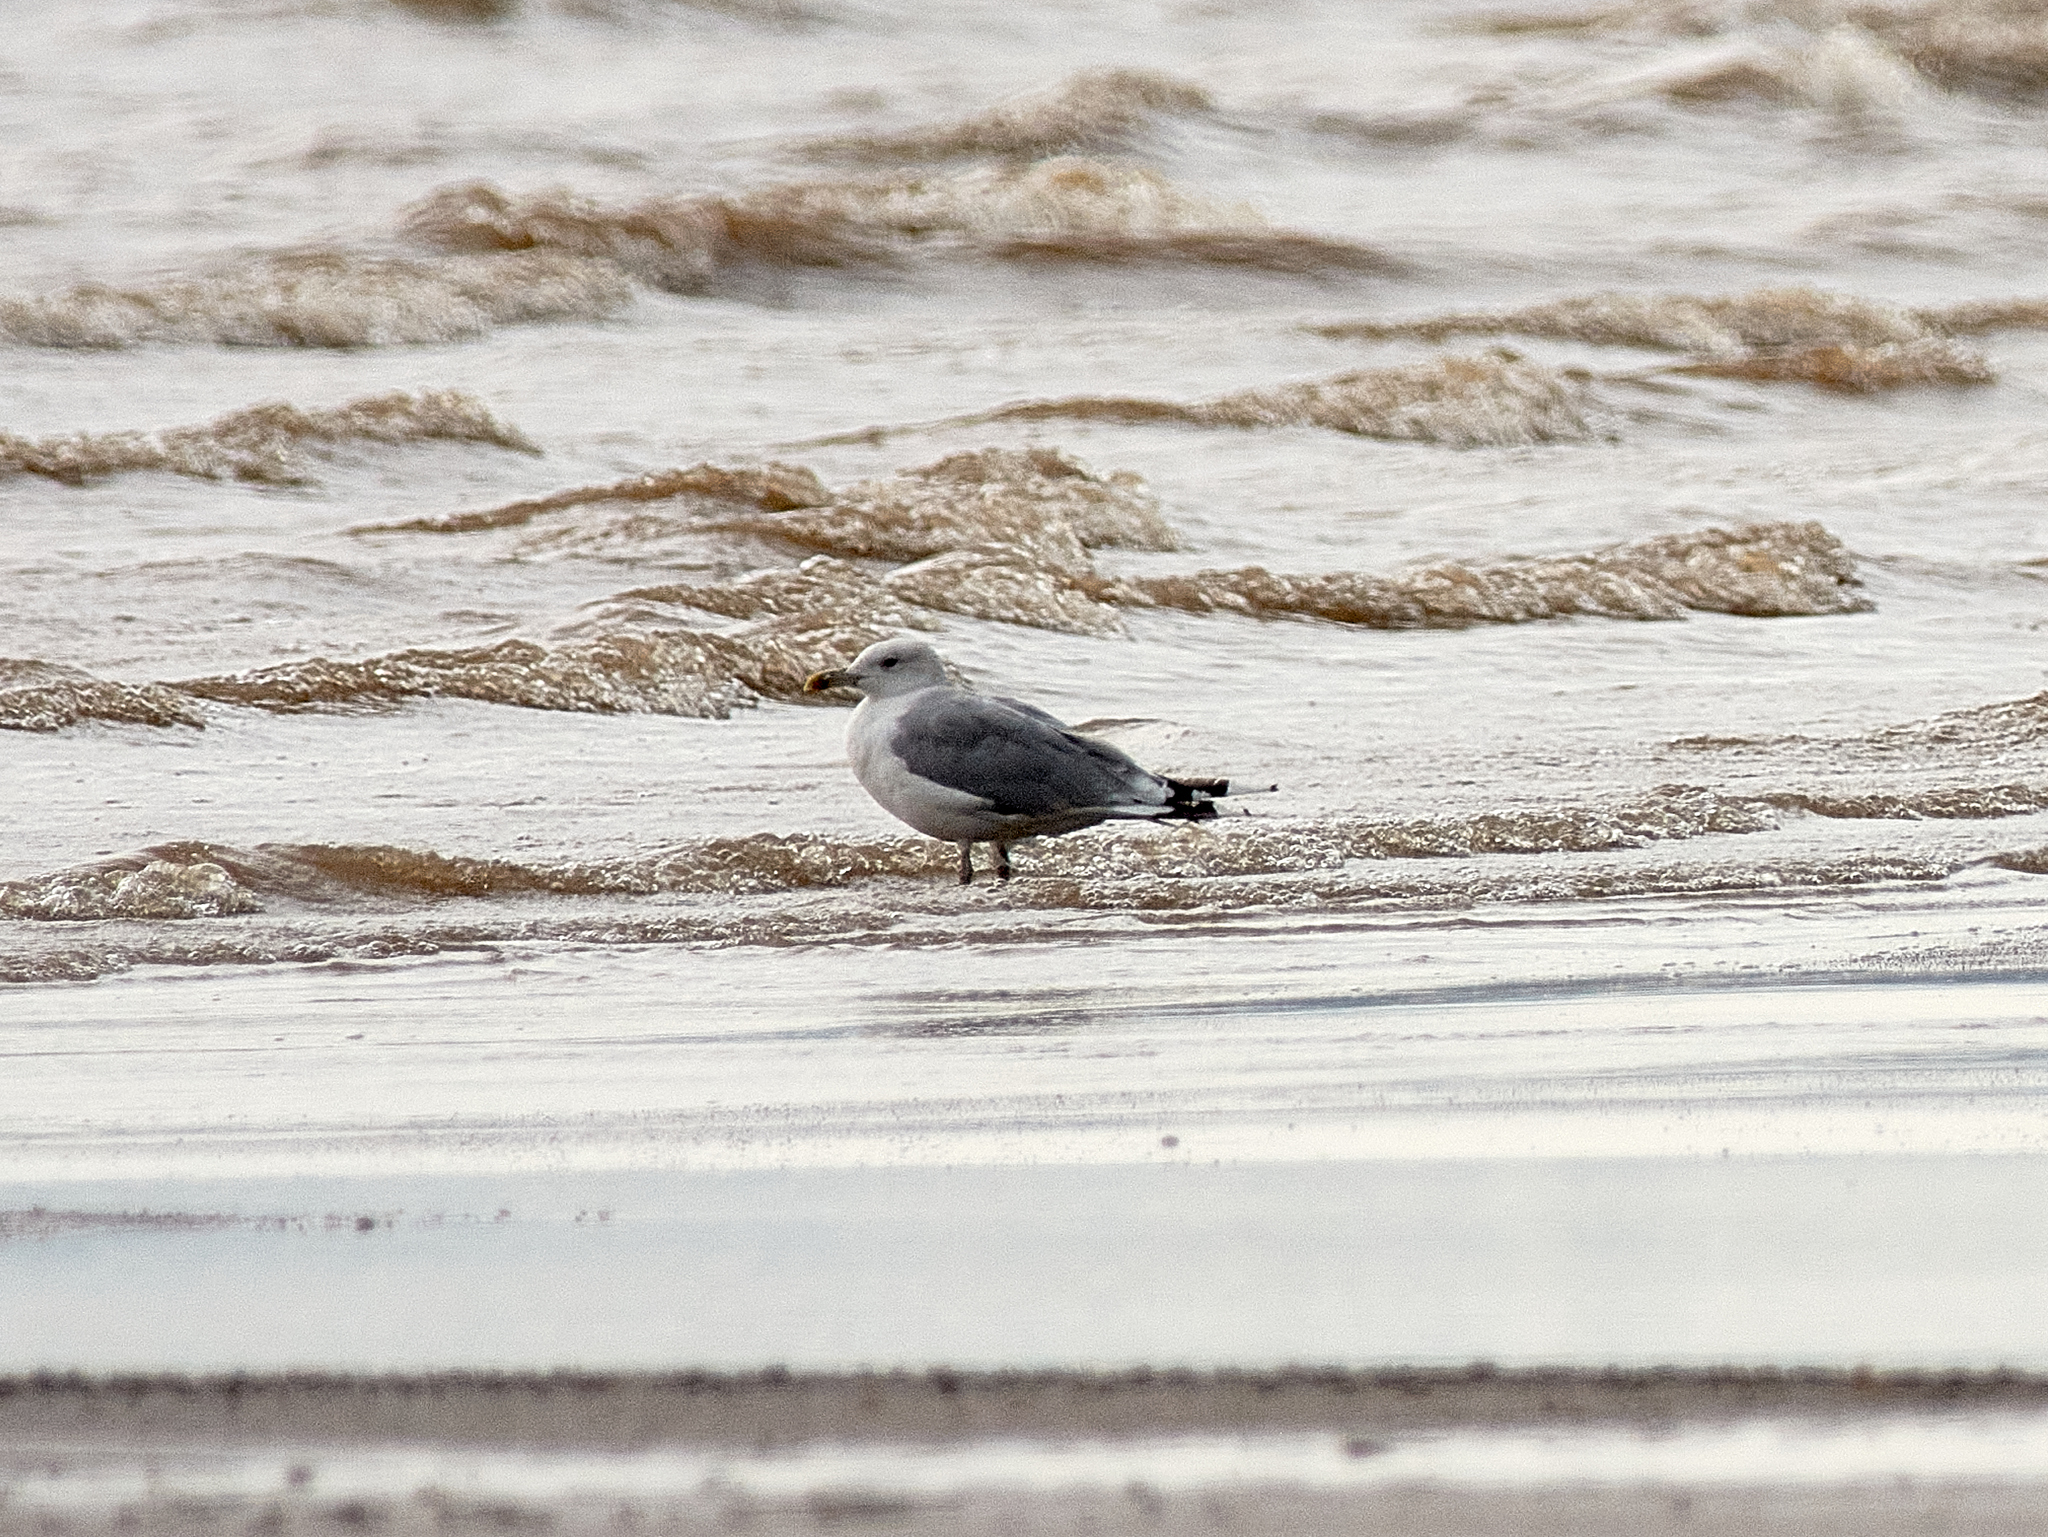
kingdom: Animalia
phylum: Chordata
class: Aves
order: Charadriiformes
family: Laridae
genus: Larus
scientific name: Larus cachinnans
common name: Caspian gull
